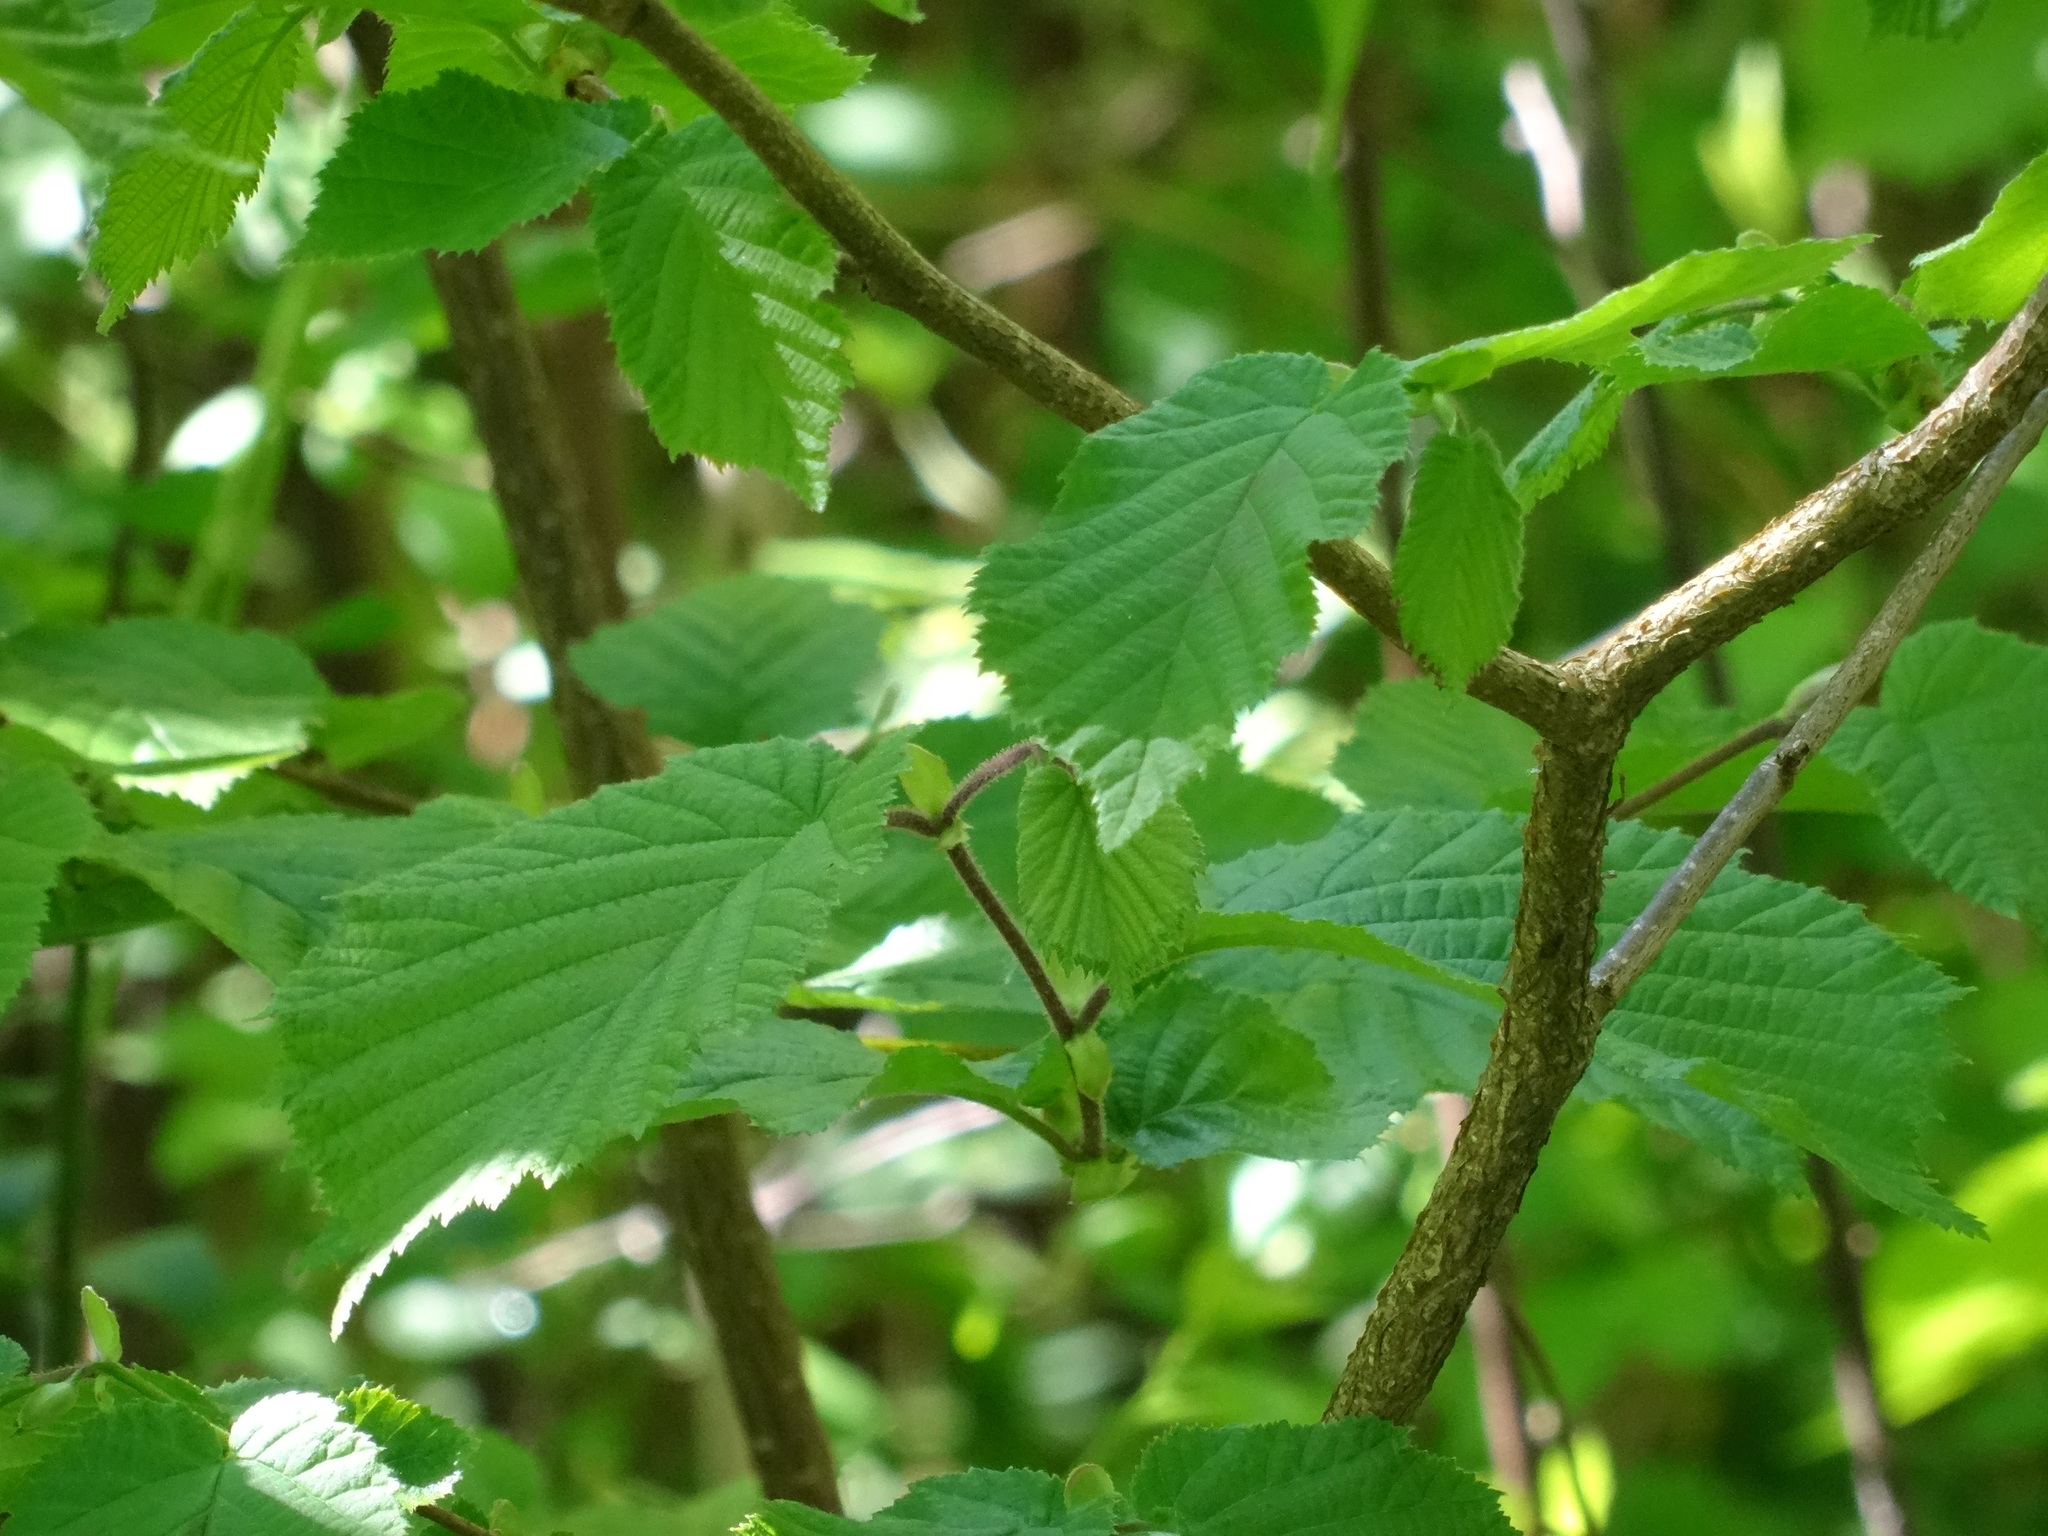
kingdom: Plantae
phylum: Tracheophyta
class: Magnoliopsida
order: Fagales
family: Betulaceae
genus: Corylus
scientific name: Corylus avellana
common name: European hazel
